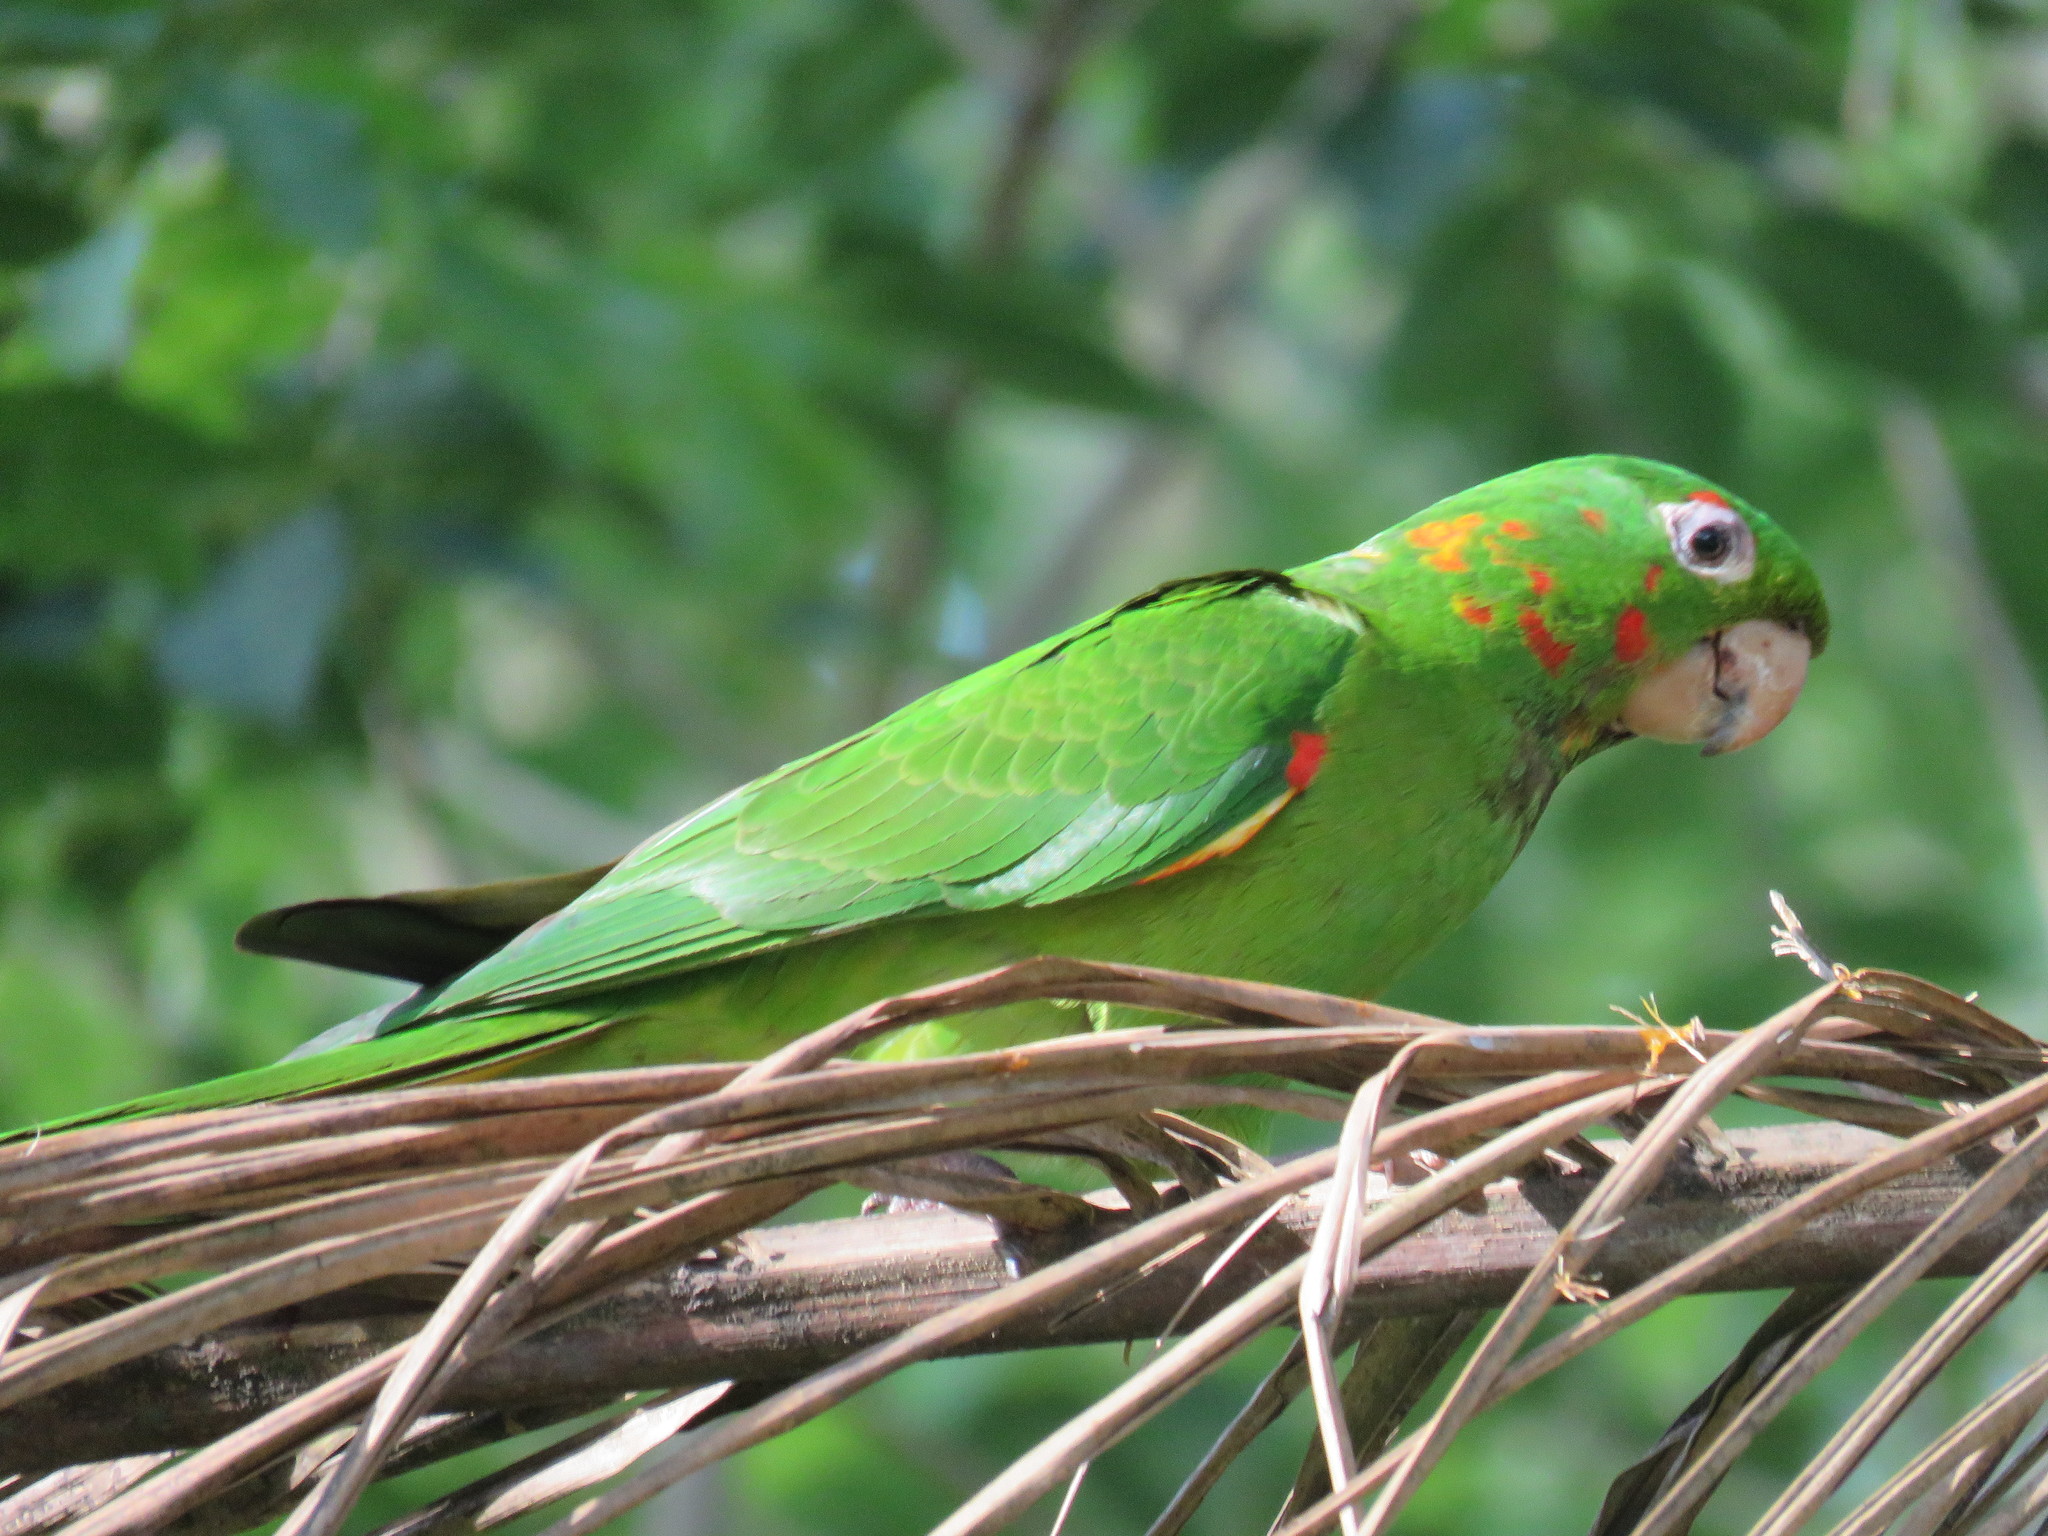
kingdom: Animalia
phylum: Chordata
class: Aves
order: Psittaciformes
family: Psittacidae
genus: Aratinga
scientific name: Aratinga leucophthalma
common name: White-eyed parakeet
